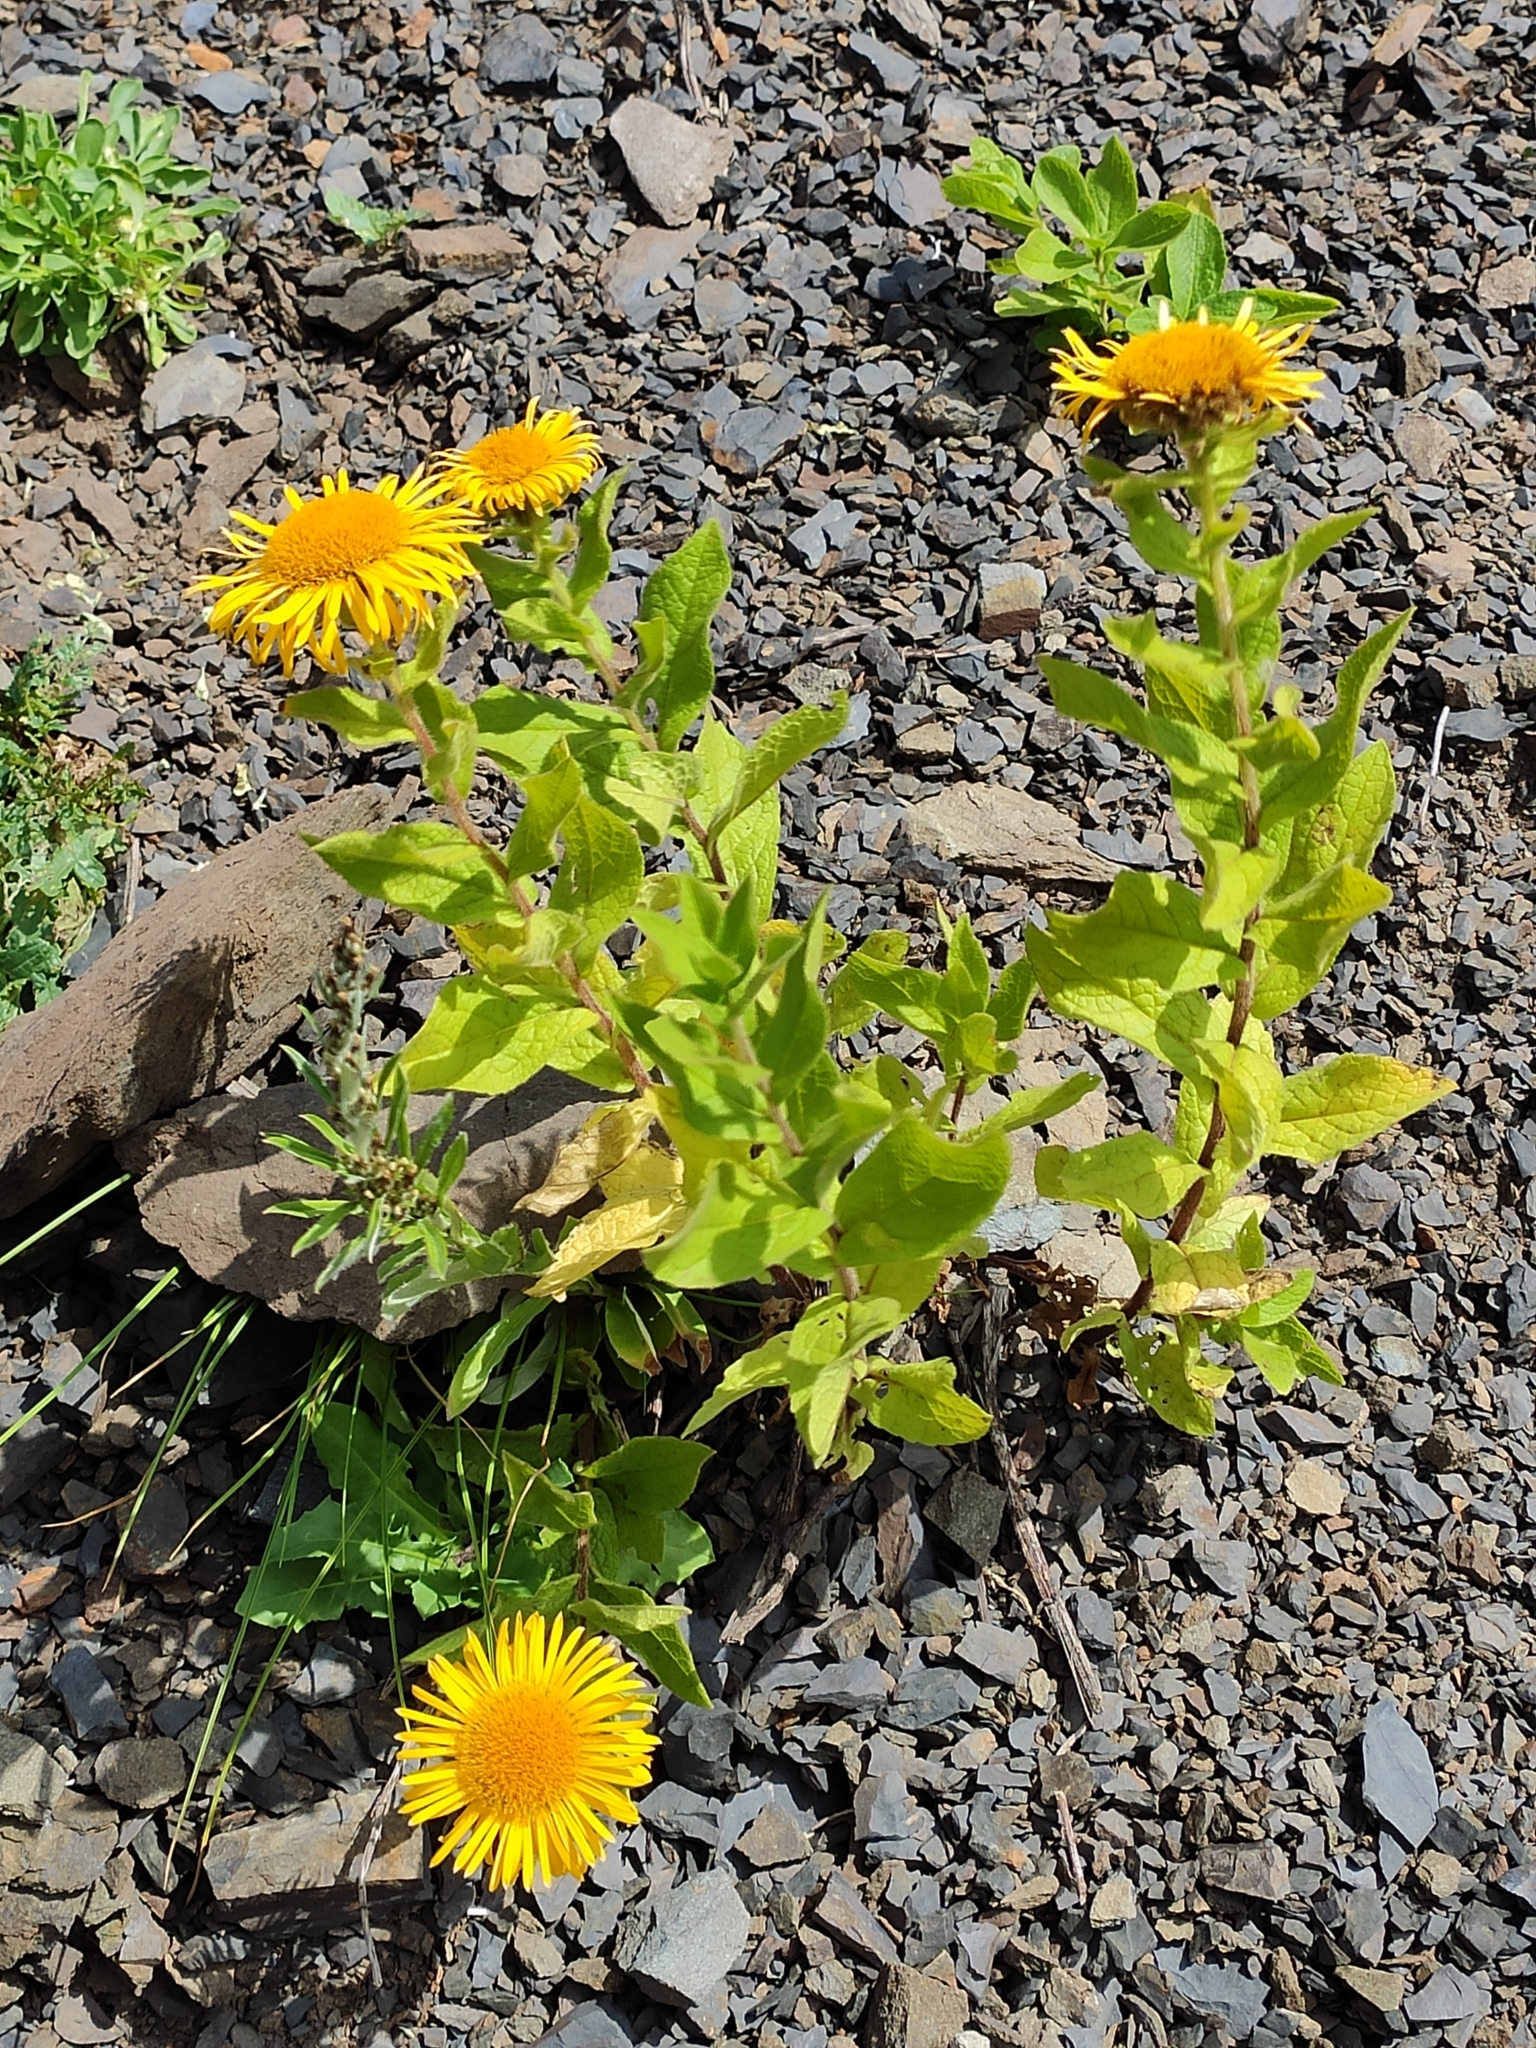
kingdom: Plantae
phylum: Tracheophyta
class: Magnoliopsida
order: Asterales
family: Asteraceae
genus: Pentanema
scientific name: Pentanema orientale
